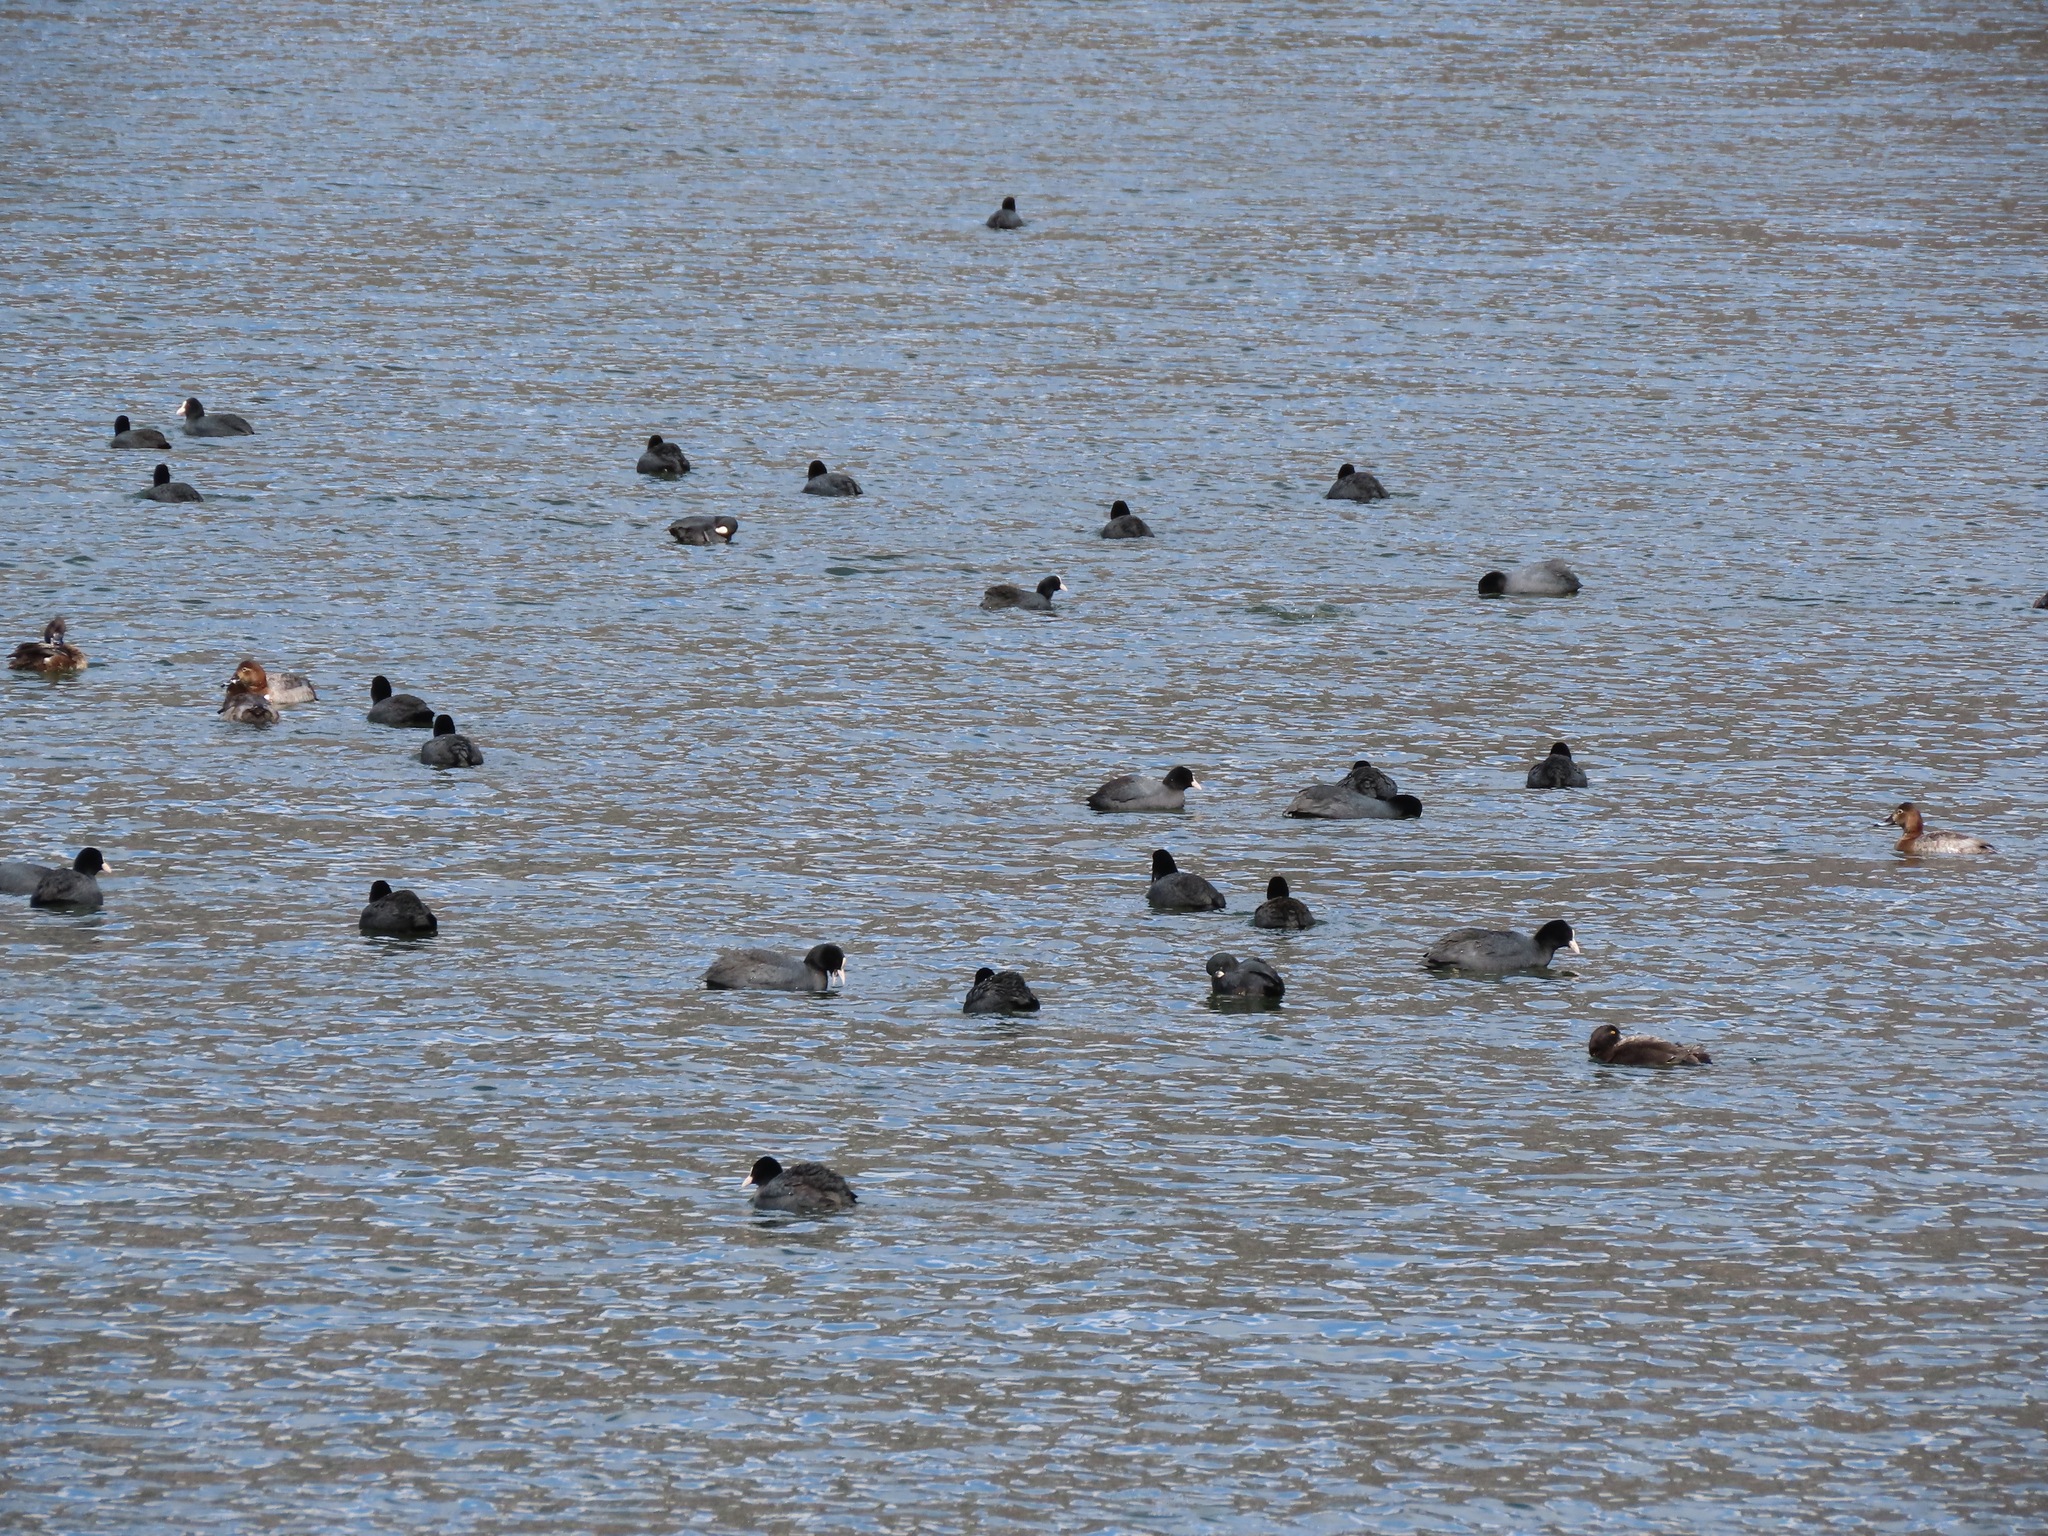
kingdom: Animalia
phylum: Chordata
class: Aves
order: Gruiformes
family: Rallidae
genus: Fulica
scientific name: Fulica atra
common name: Eurasian coot
